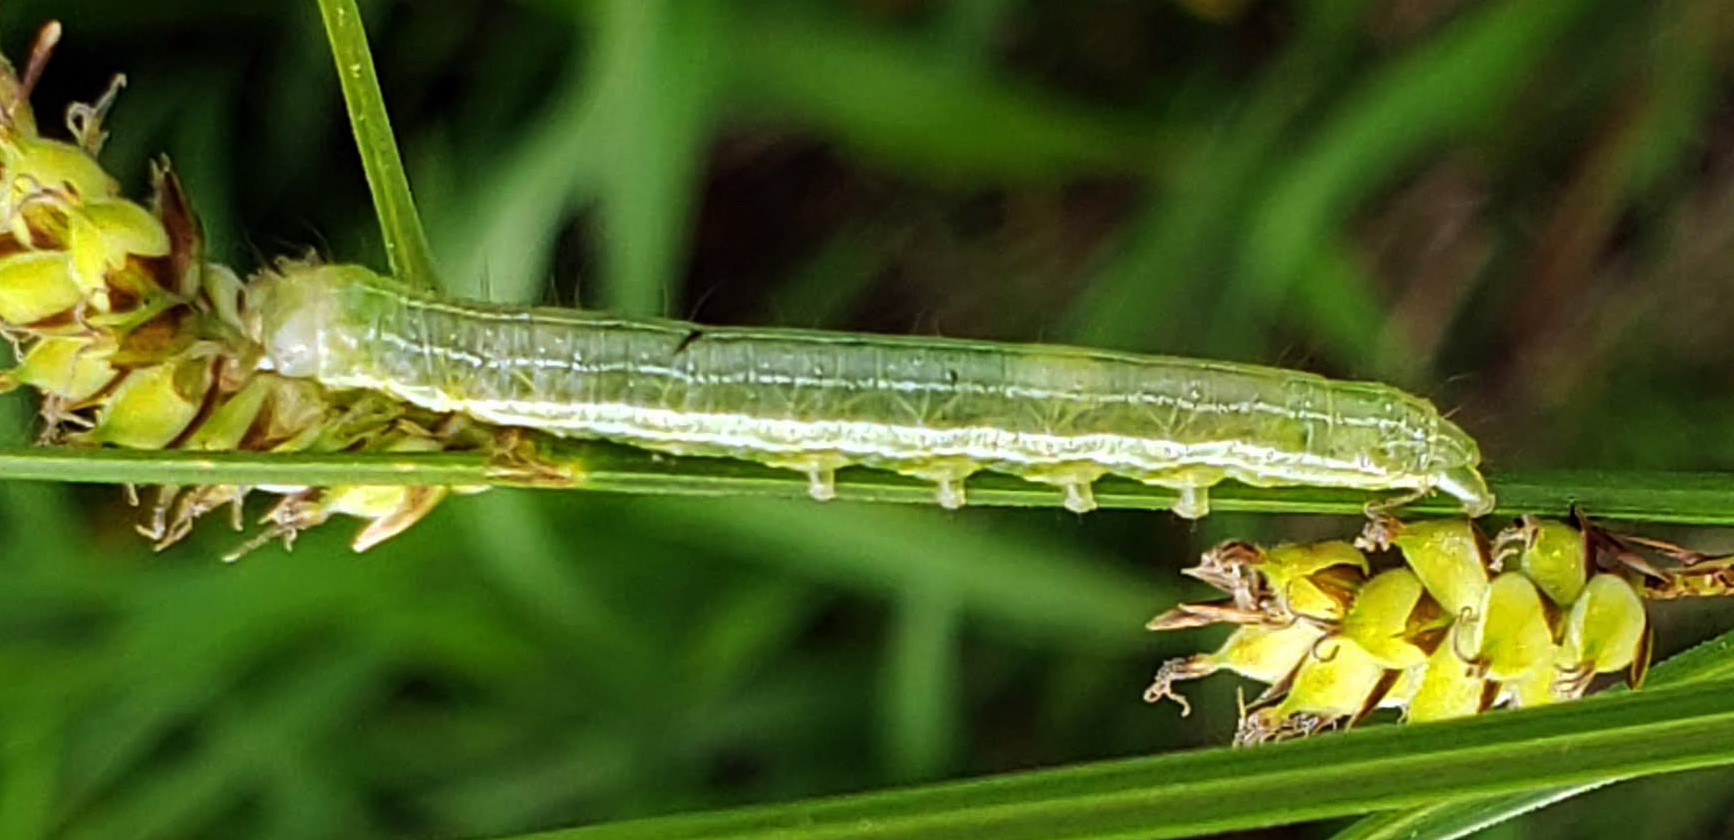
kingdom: Animalia
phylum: Arthropoda
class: Insecta
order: Lepidoptera
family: Noctuidae
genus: Loscopia
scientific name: Loscopia velata
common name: Veiled ear moth
